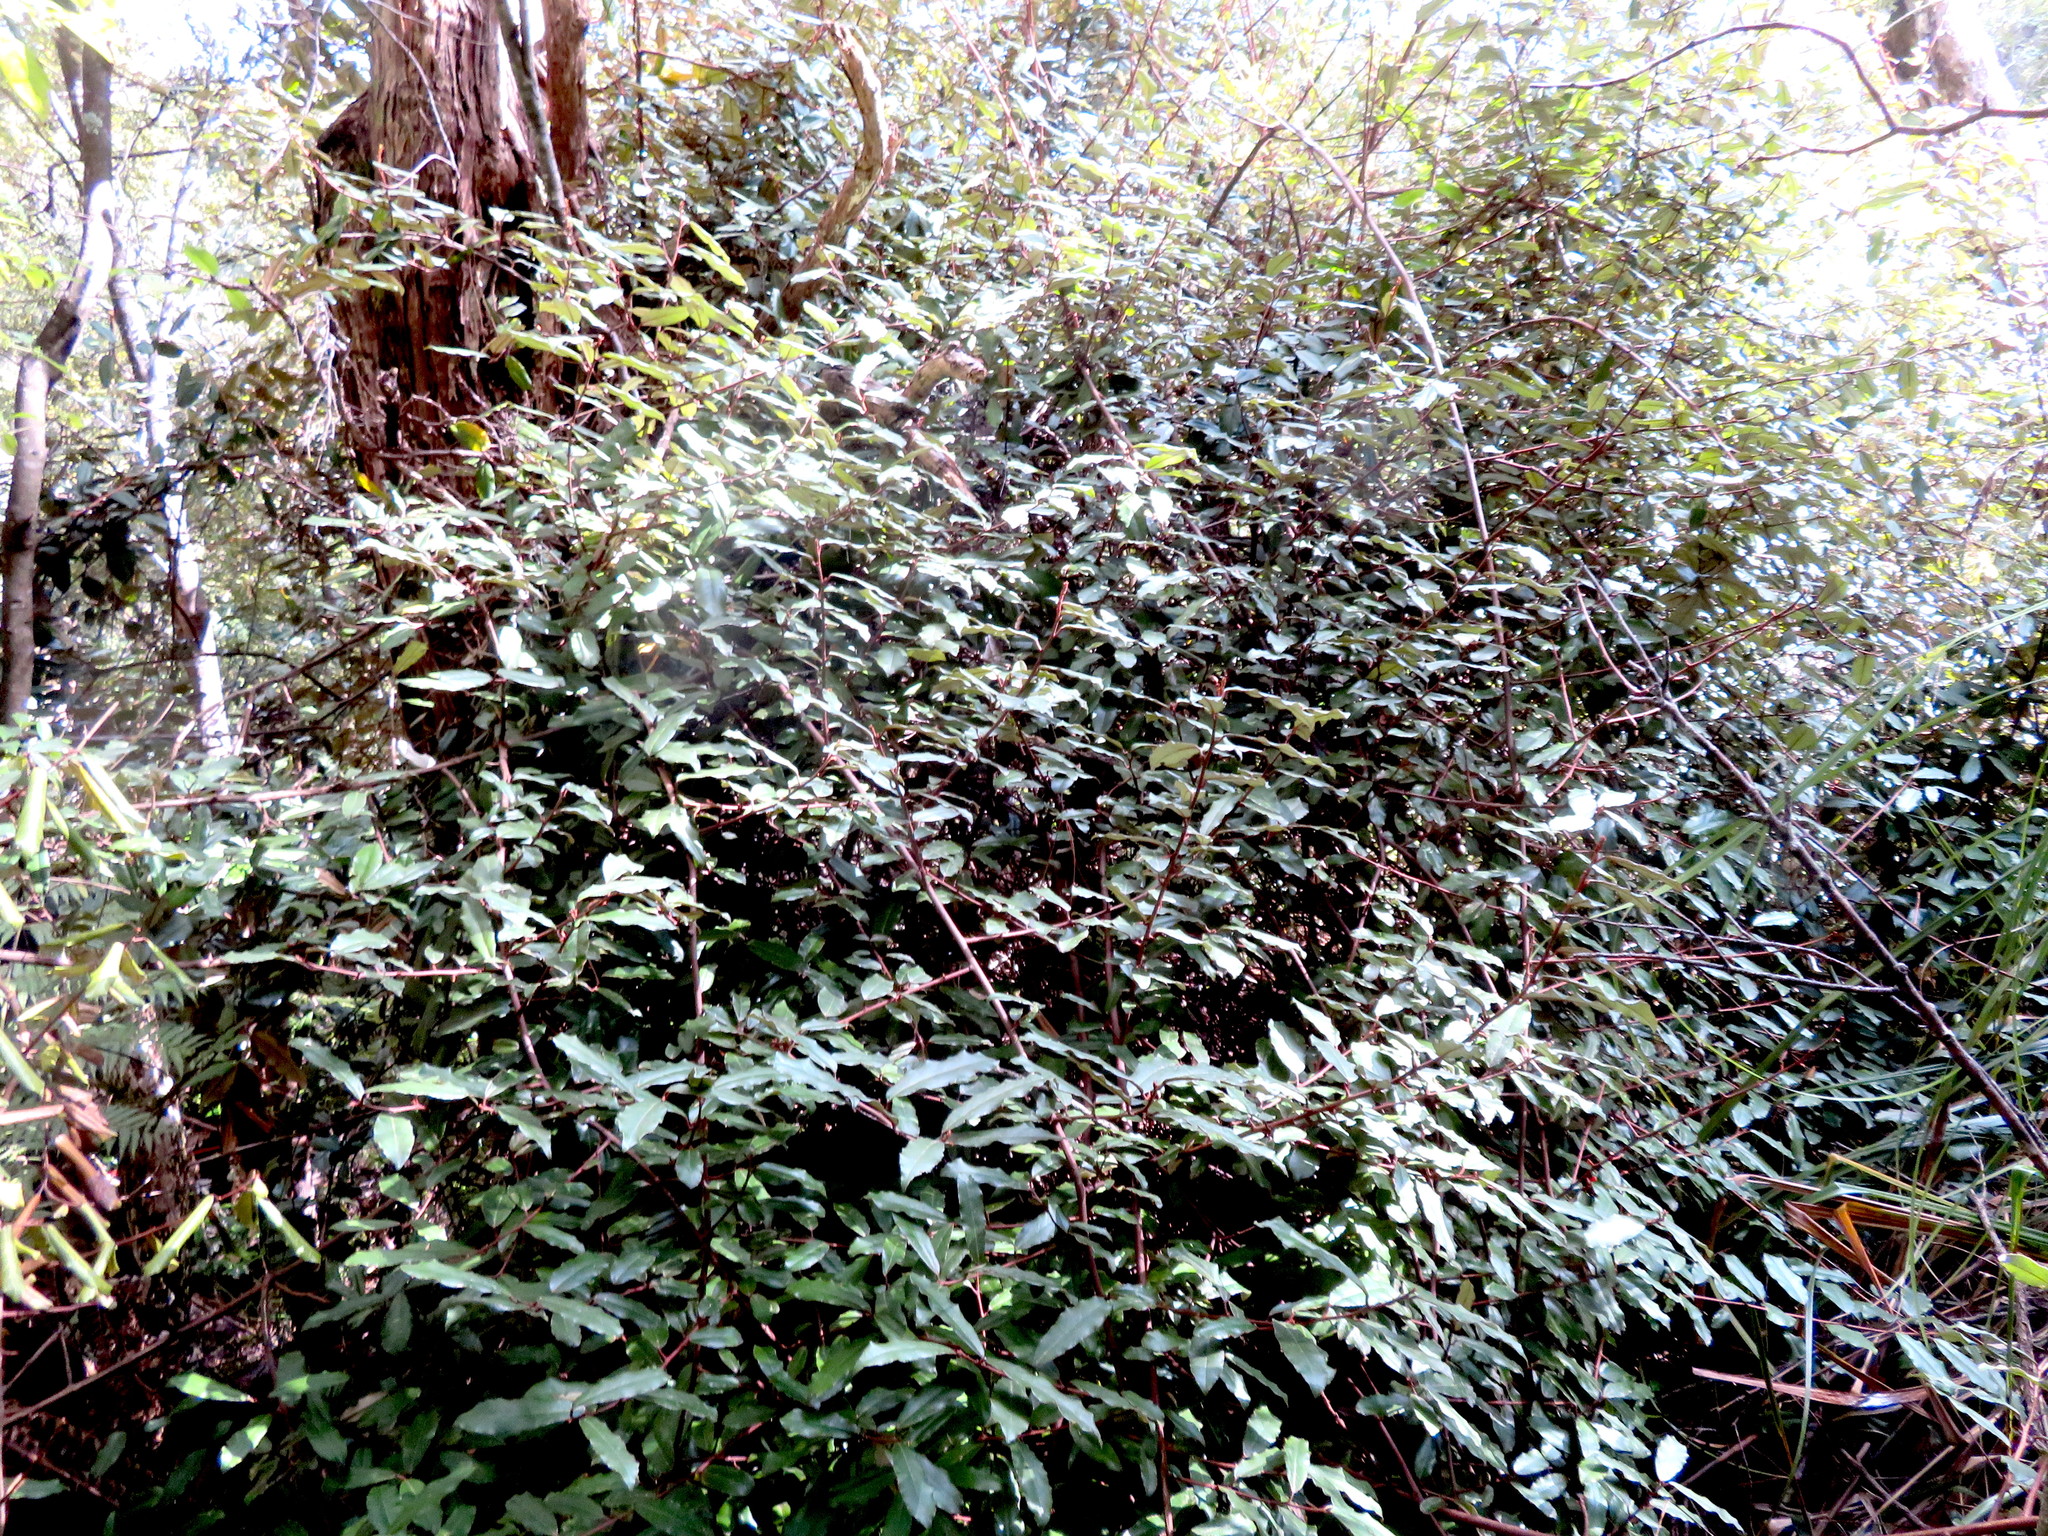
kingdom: Plantae
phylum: Tracheophyta
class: Magnoliopsida
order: Rosales
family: Elaeagnaceae
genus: Elaeagnus
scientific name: Elaeagnus reflexa
